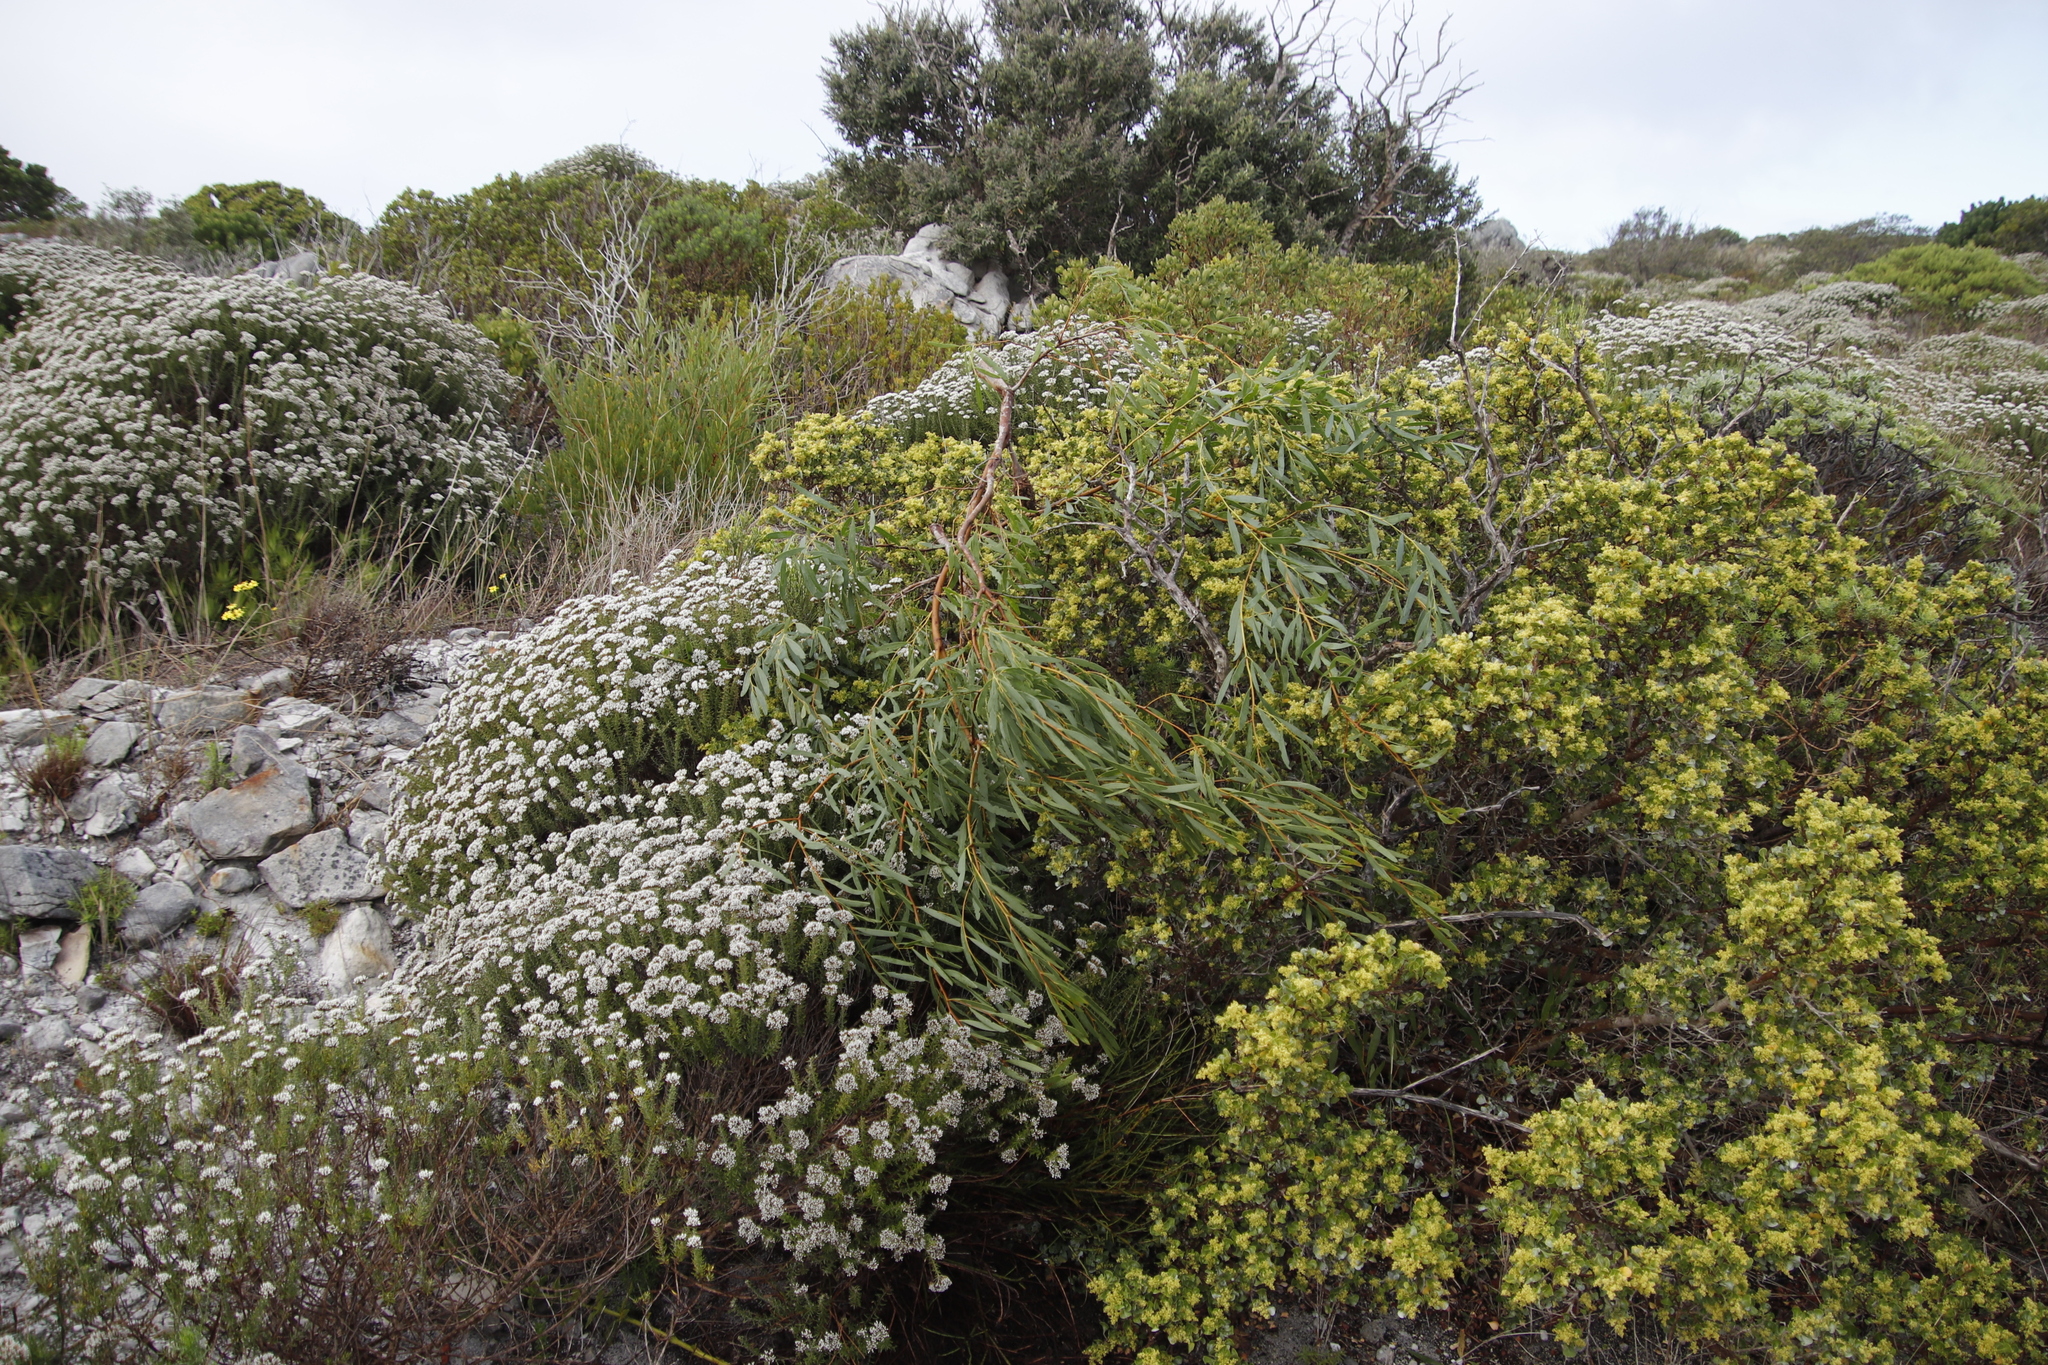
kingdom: Plantae
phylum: Tracheophyta
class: Magnoliopsida
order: Asterales
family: Asteraceae
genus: Metalasia
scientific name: Metalasia densa
